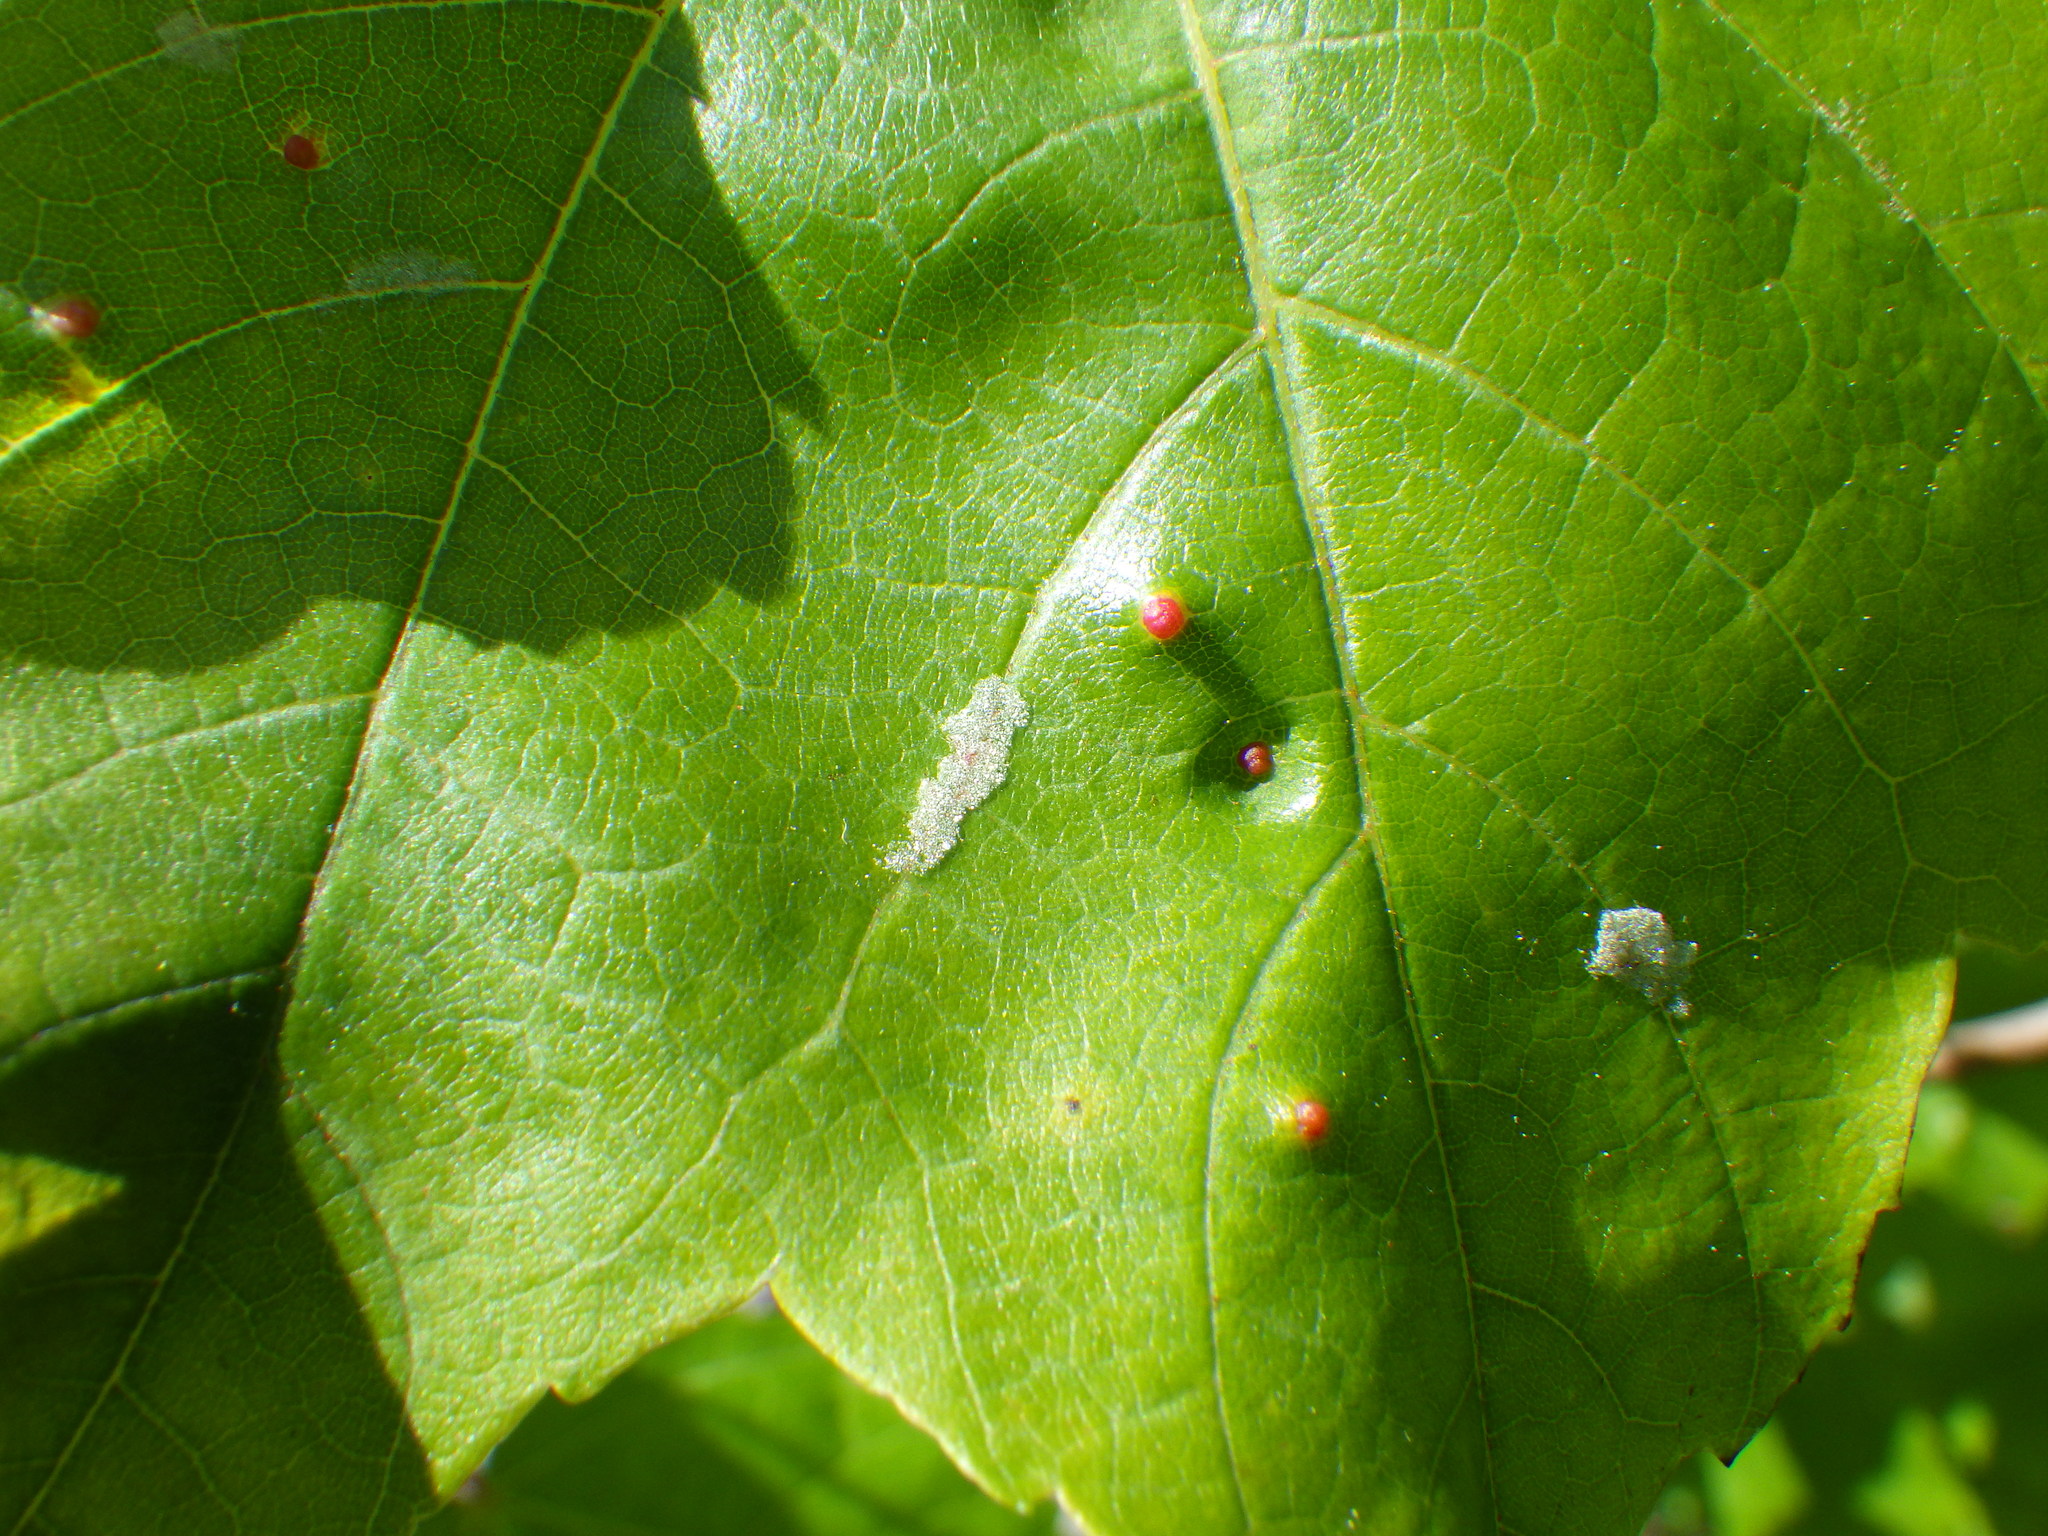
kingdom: Animalia
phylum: Arthropoda
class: Arachnida
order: Trombidiformes
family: Eriophyidae
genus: Aculus
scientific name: Aculus
